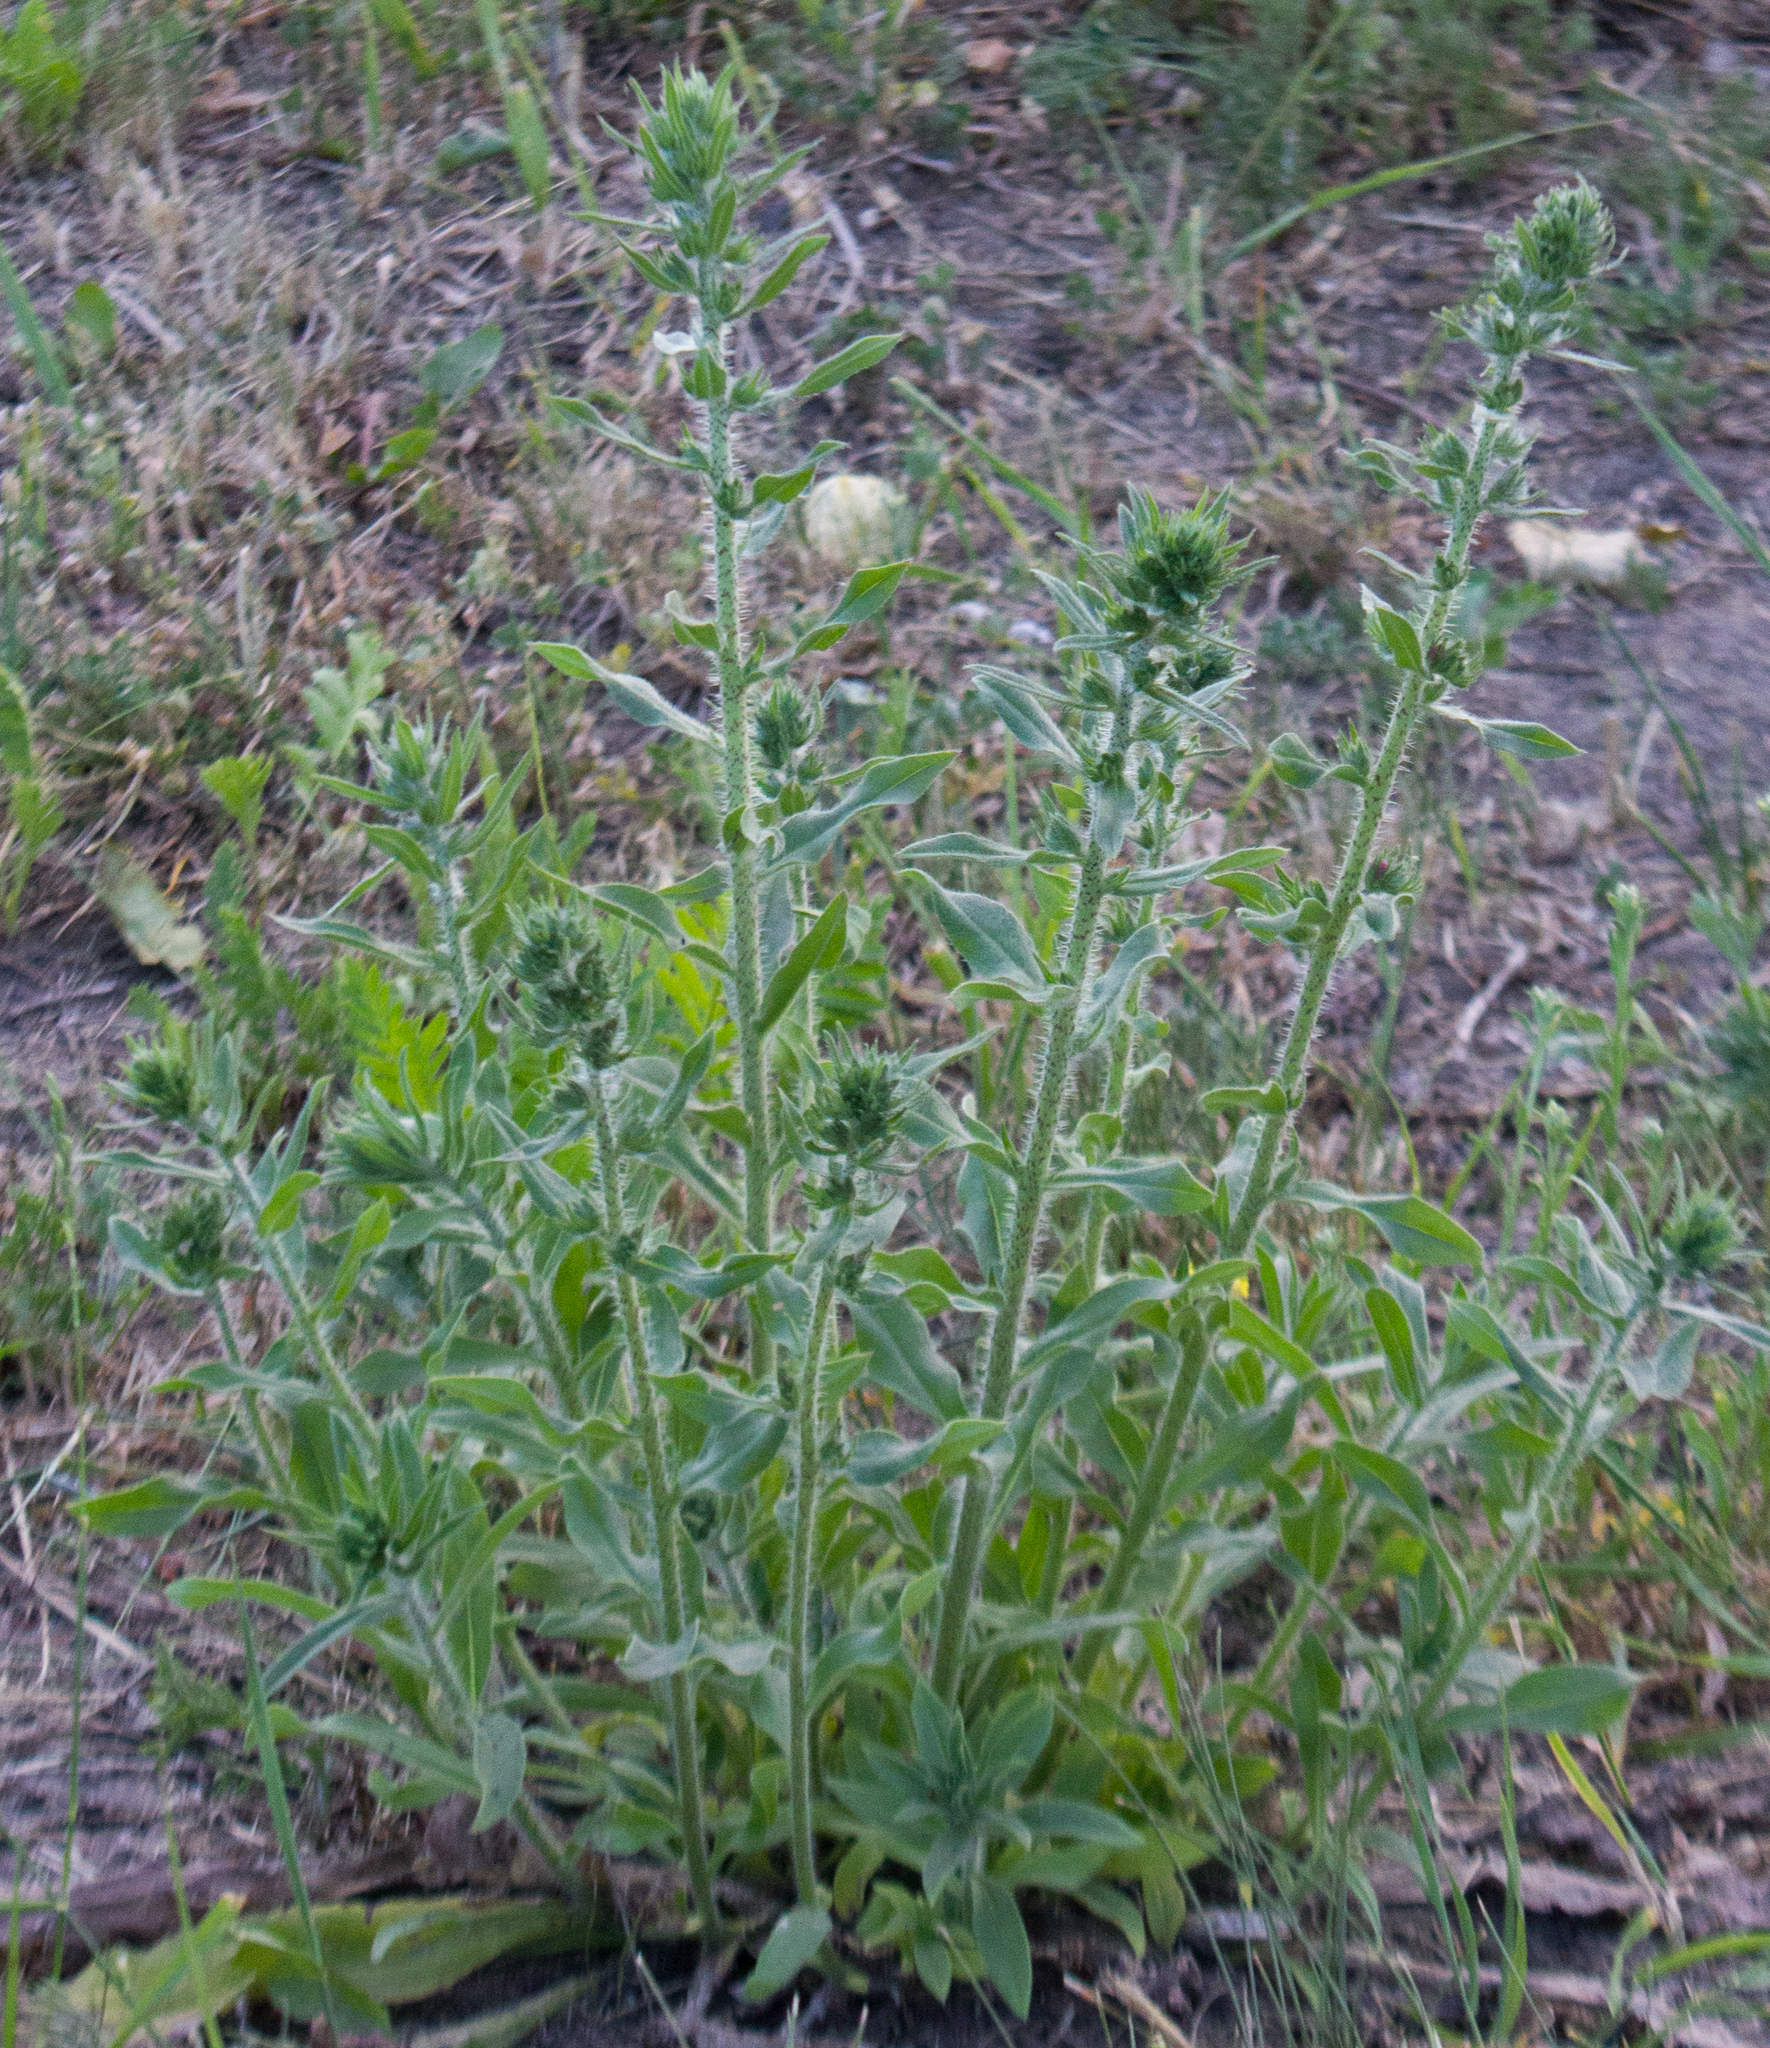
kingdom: Plantae
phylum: Tracheophyta
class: Magnoliopsida
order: Boraginales
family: Boraginaceae
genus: Echium
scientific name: Echium vulgare
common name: Common viper's bugloss
